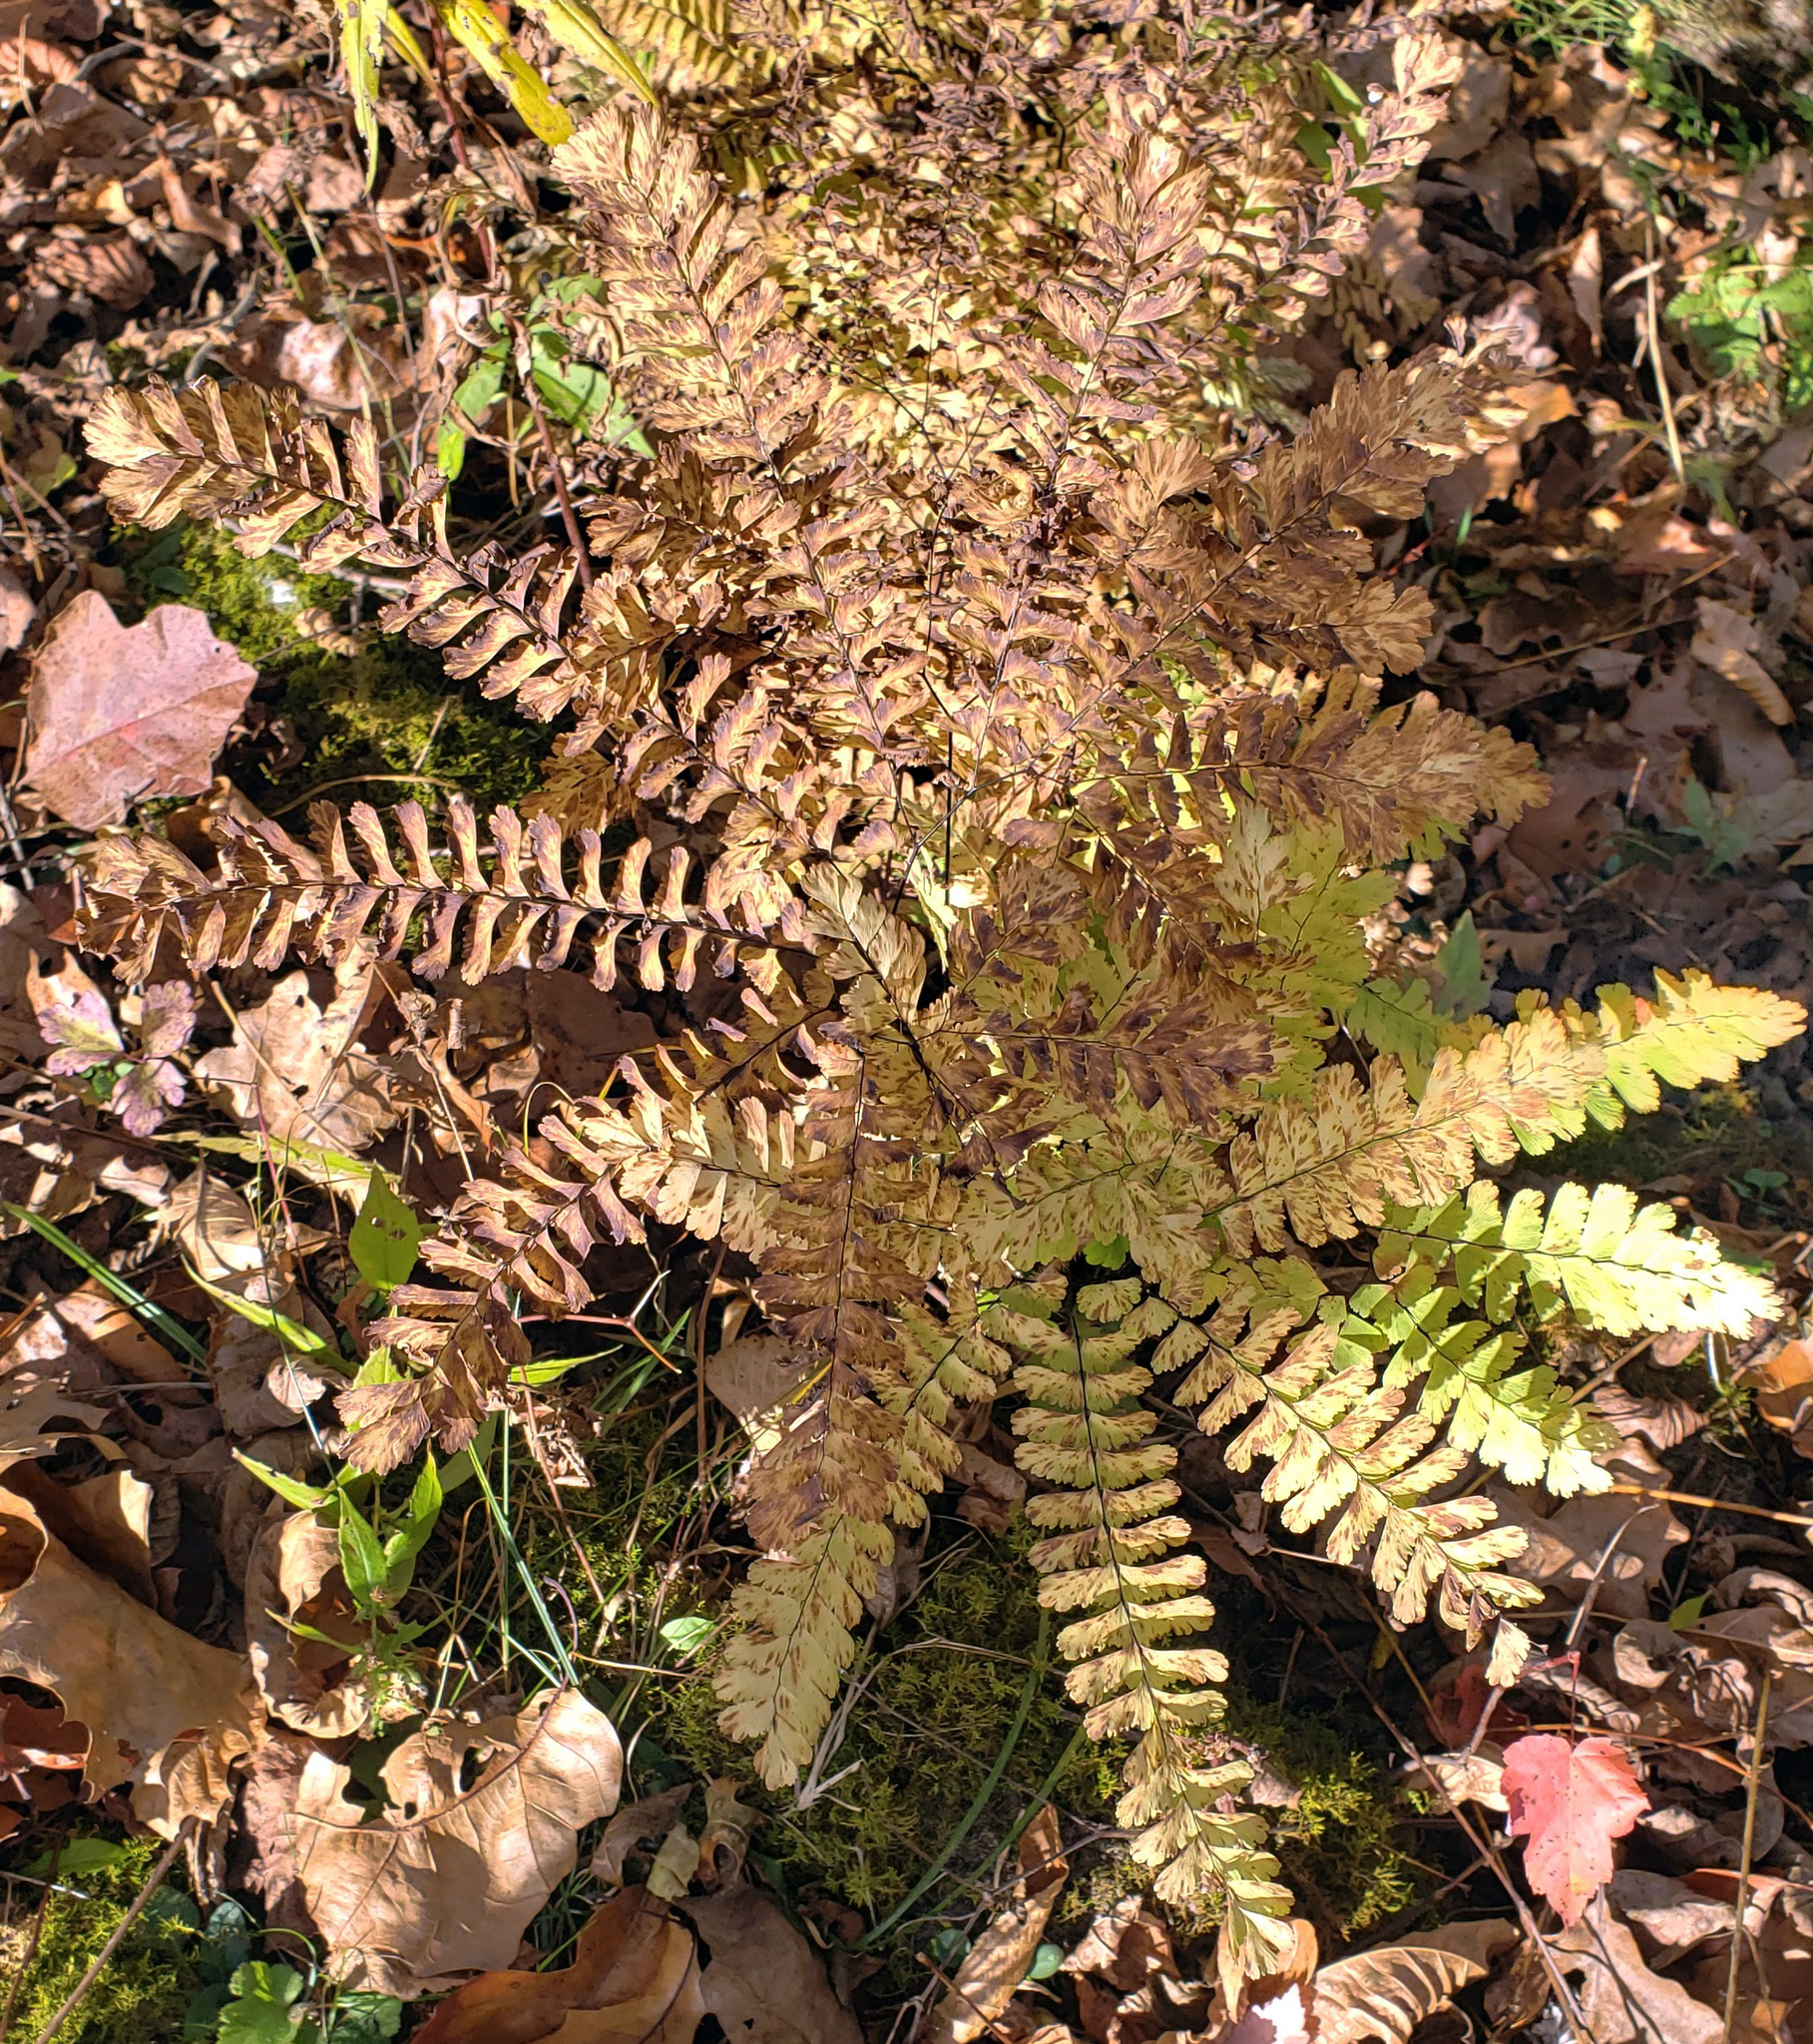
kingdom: Plantae
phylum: Tracheophyta
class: Polypodiopsida
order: Polypodiales
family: Pteridaceae
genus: Adiantum
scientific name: Adiantum pedatum
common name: Five-finger fern
